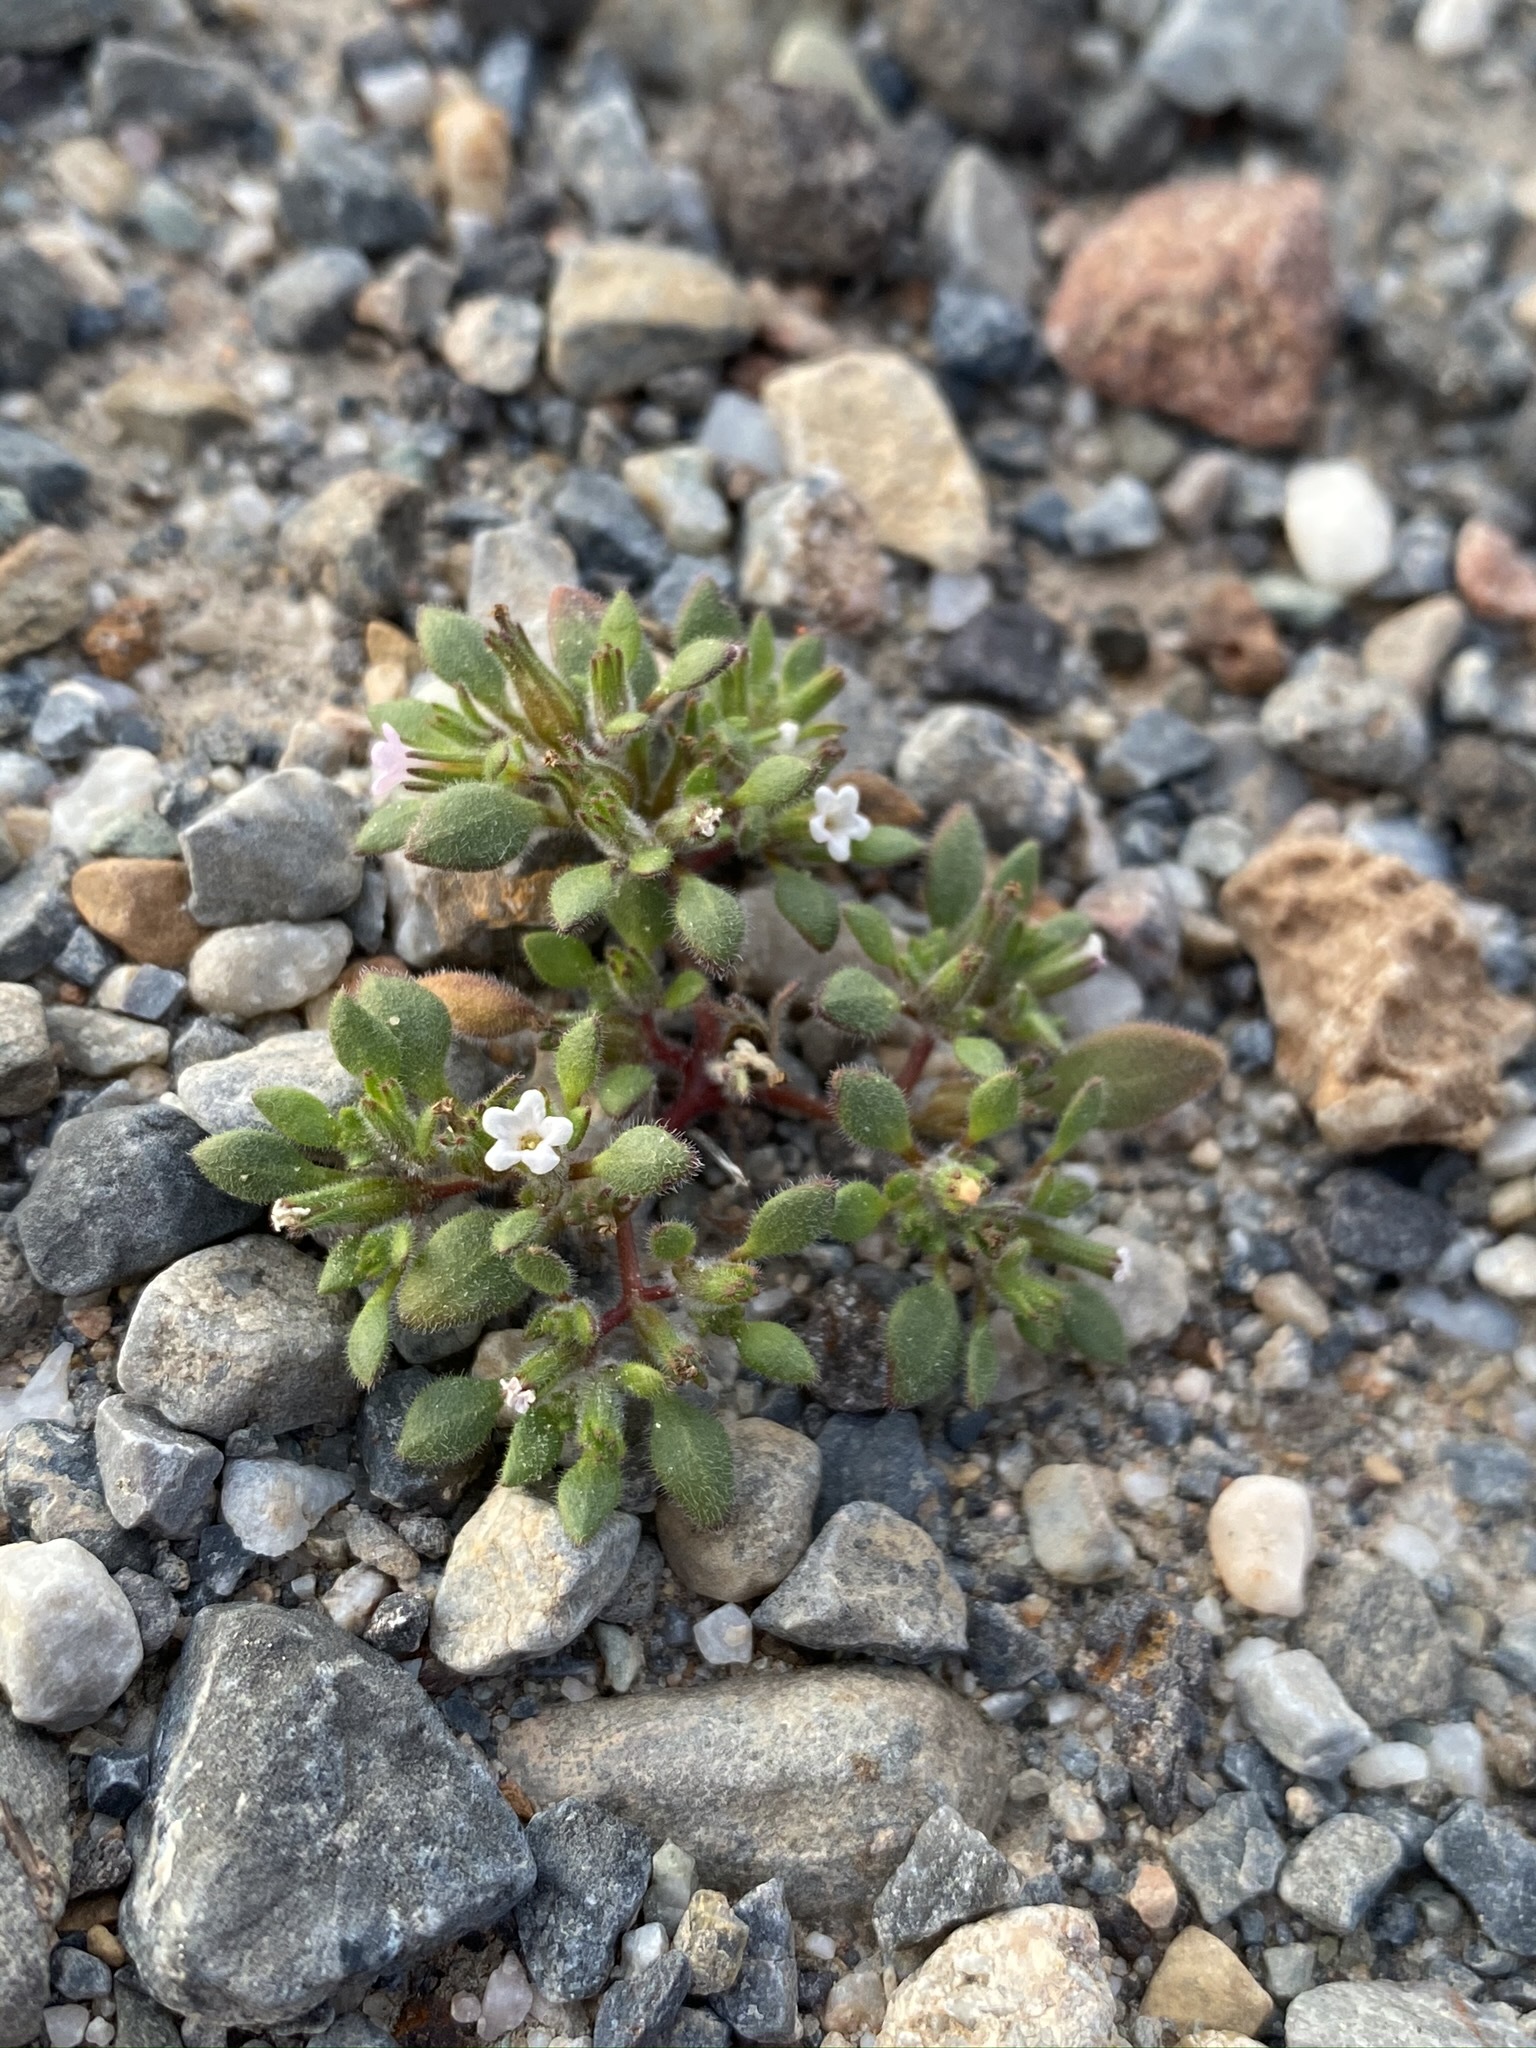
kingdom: Plantae
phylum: Tracheophyta
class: Magnoliopsida
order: Boraginales
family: Namaceae
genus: Nama
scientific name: Nama pusilla
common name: Eggleaf nama
